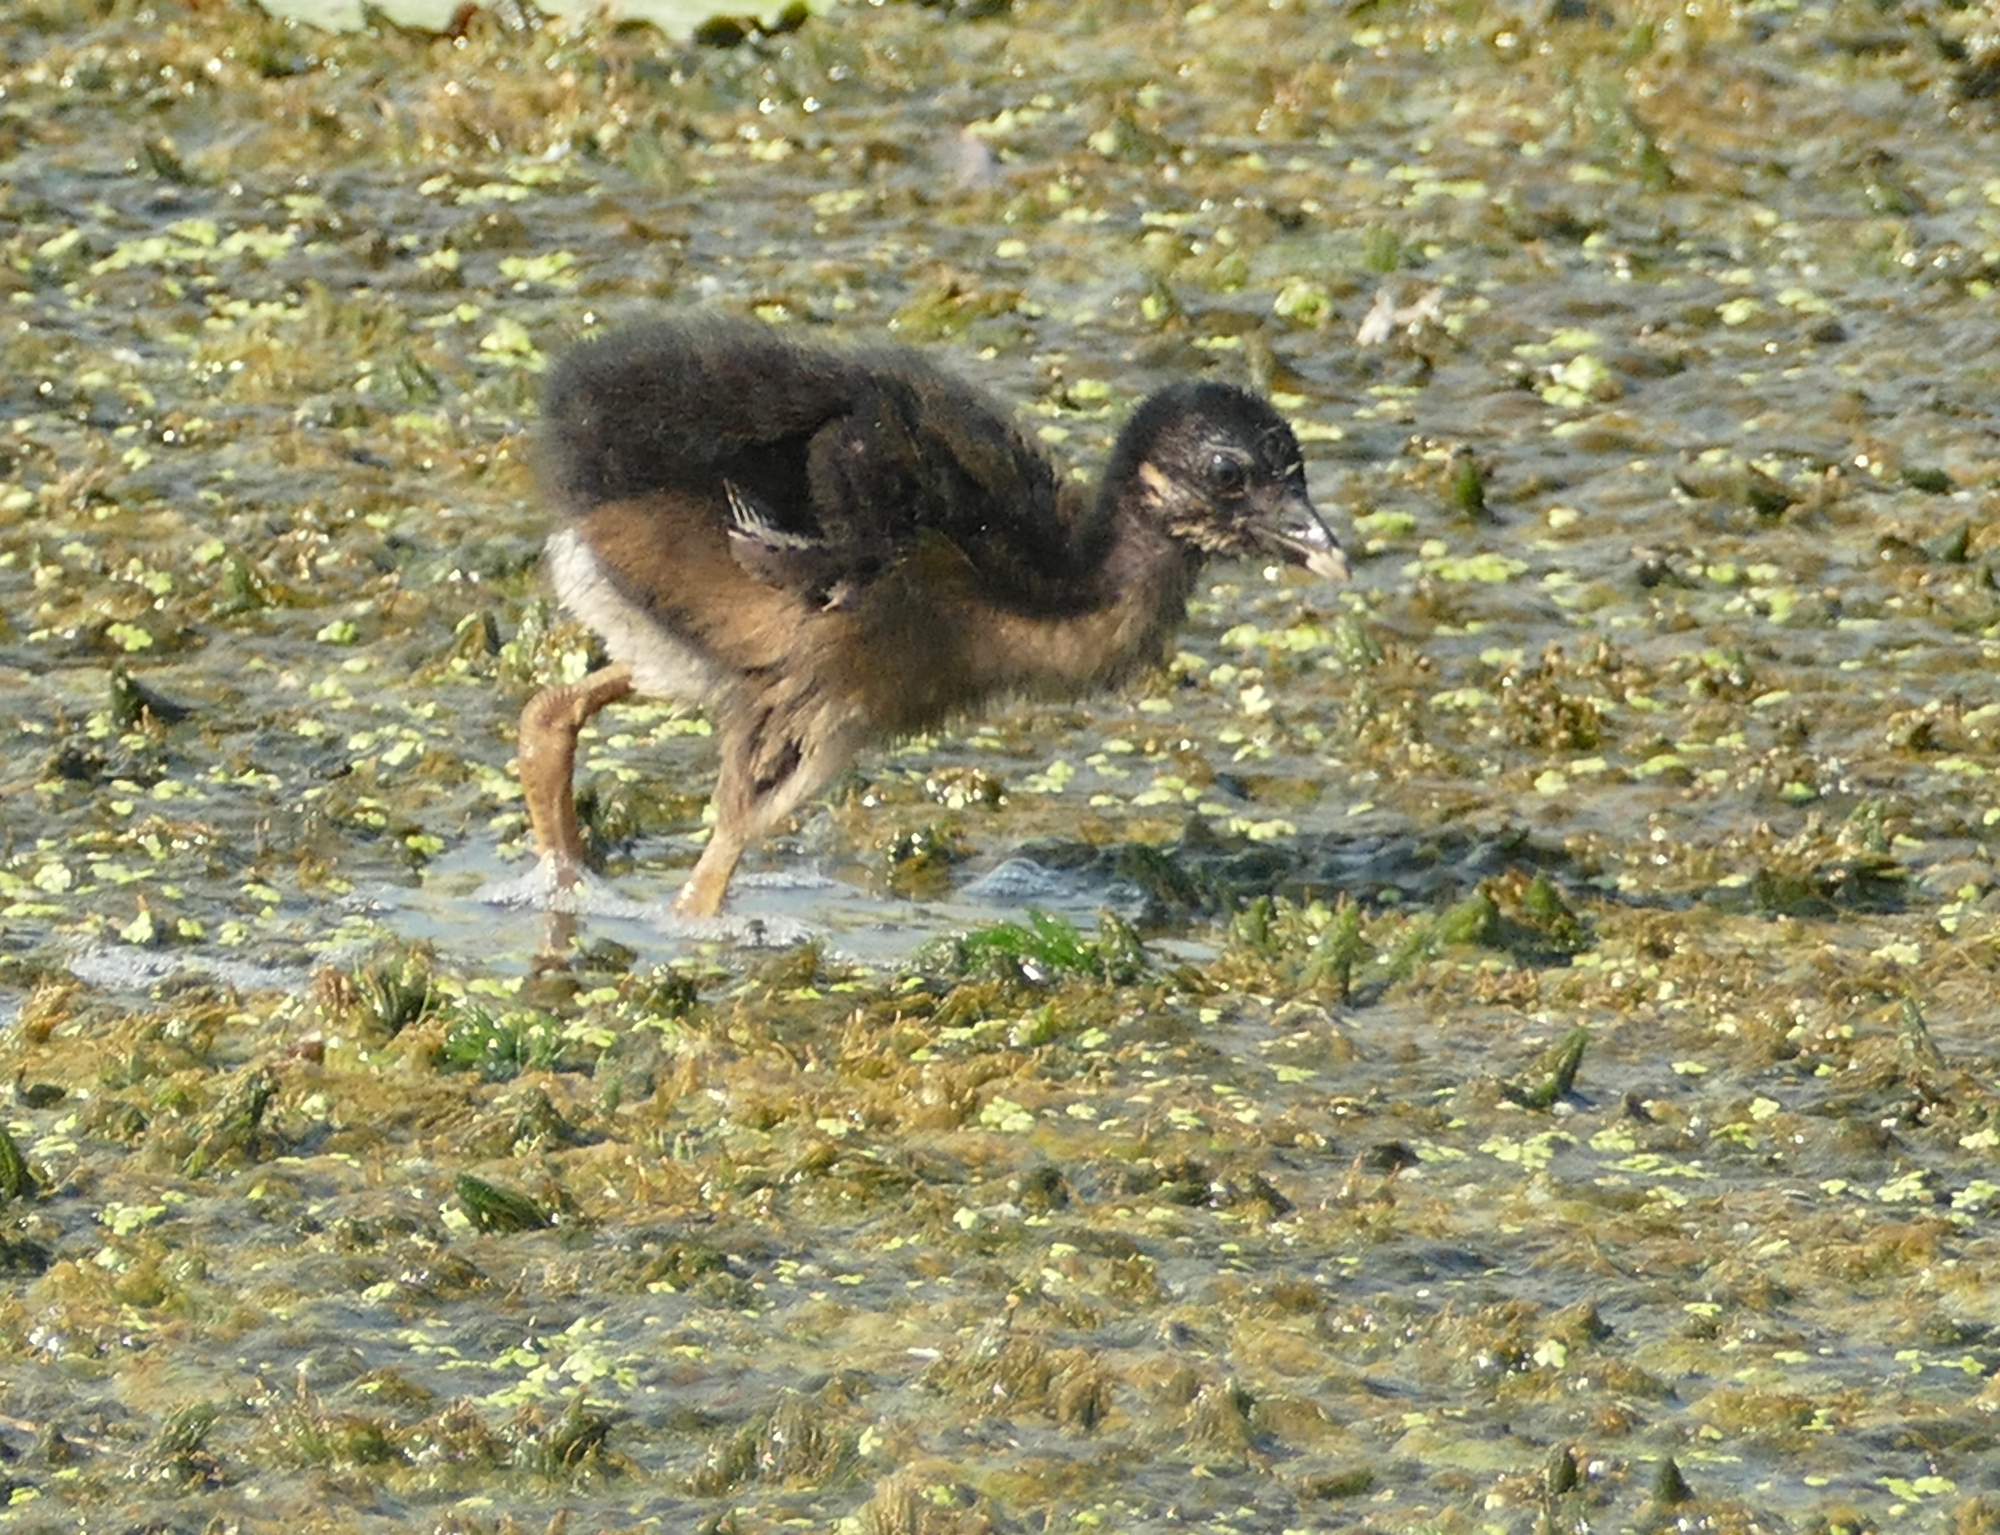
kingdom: Animalia
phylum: Chordata
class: Aves
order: Gruiformes
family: Rallidae
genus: Porphyrio
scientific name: Porphyrio martinica
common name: Purple gallinule
